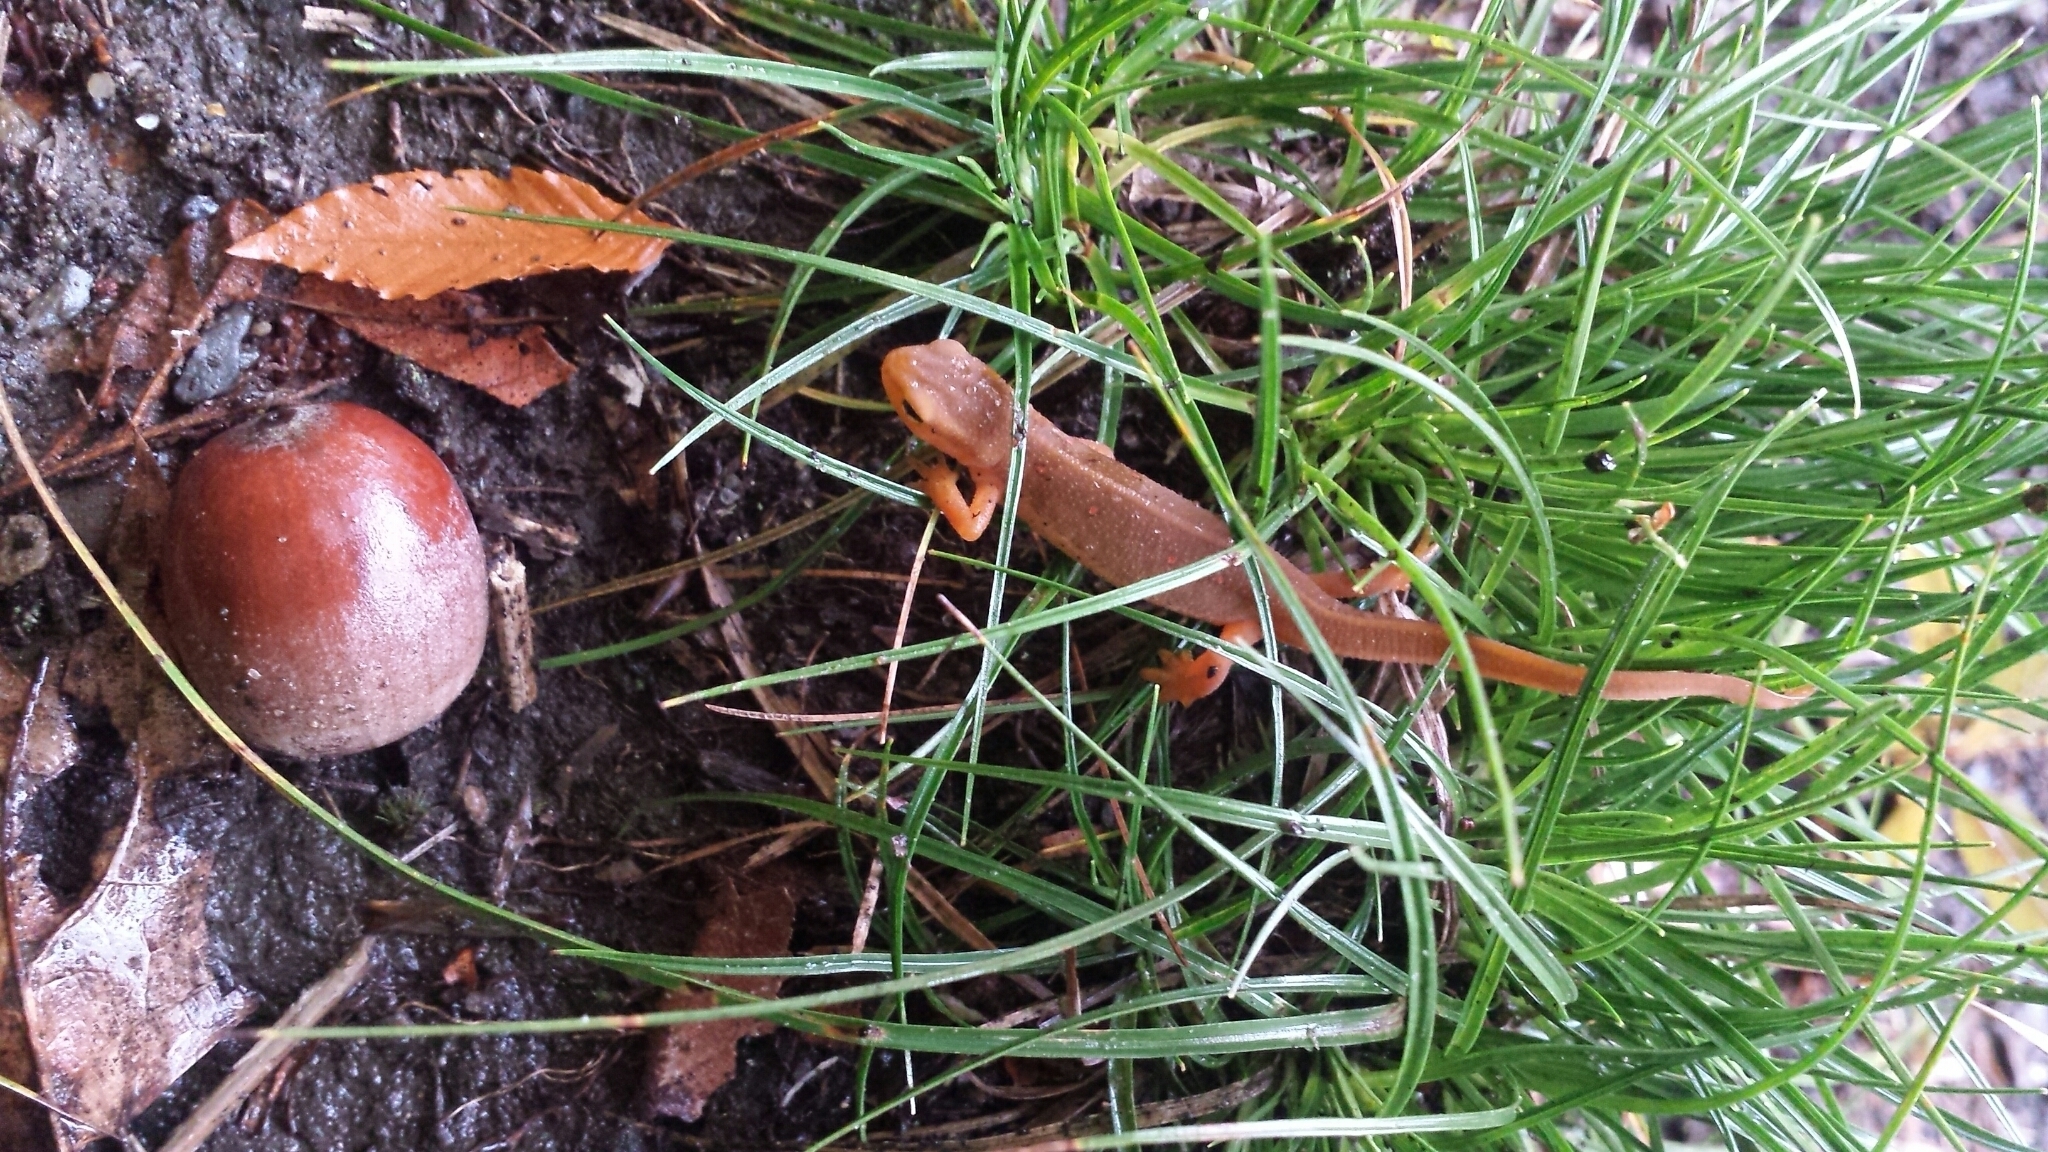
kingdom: Animalia
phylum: Chordata
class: Amphibia
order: Caudata
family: Salamandridae
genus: Notophthalmus
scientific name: Notophthalmus viridescens
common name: Eastern newt
